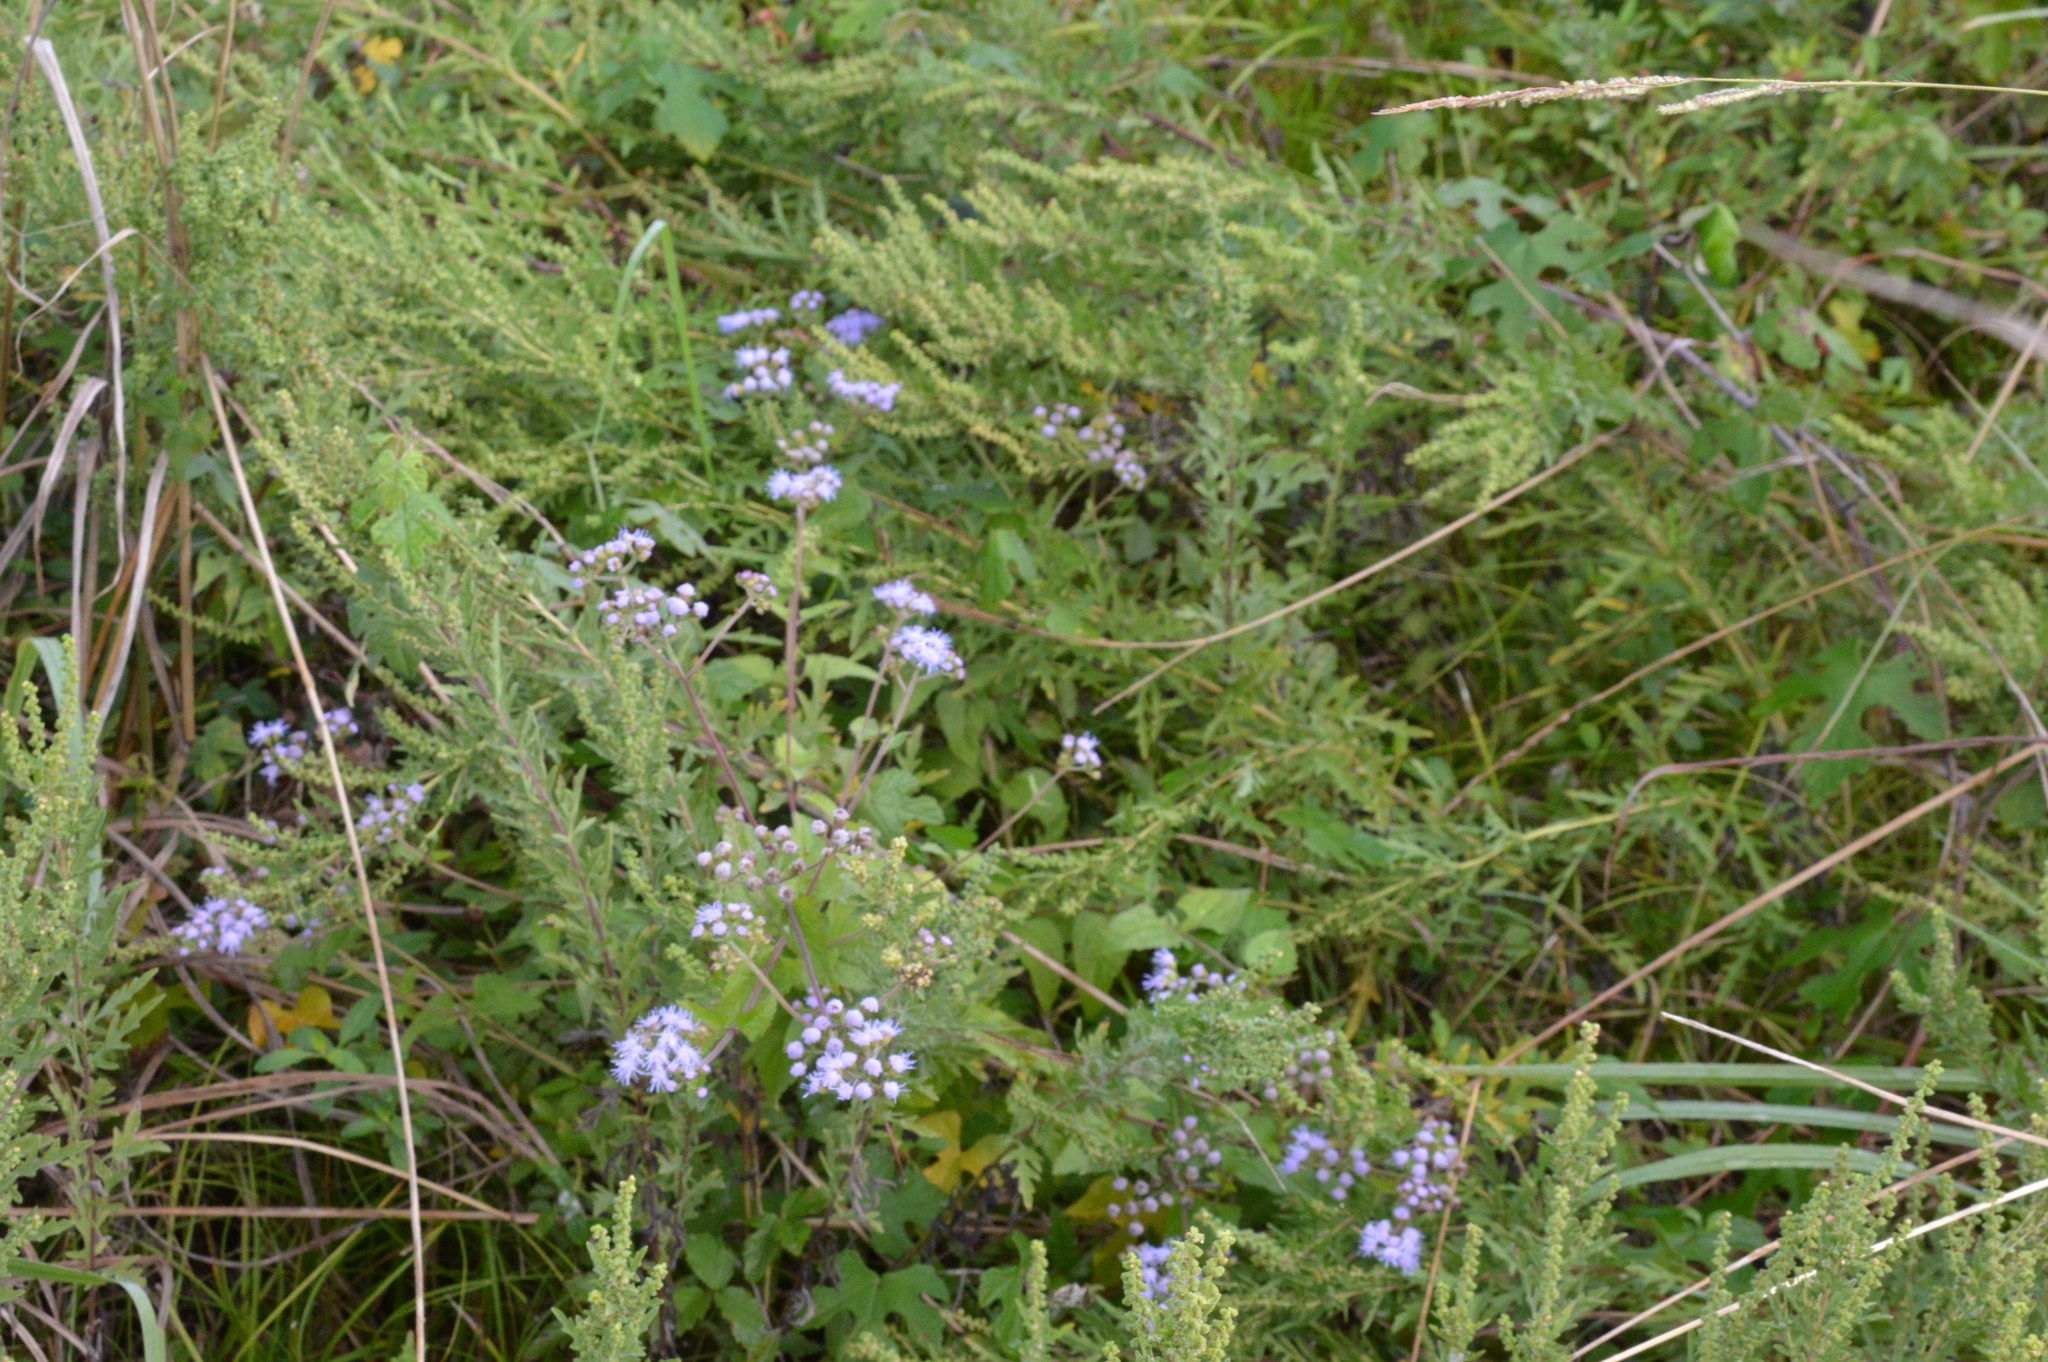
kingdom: Plantae
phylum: Tracheophyta
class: Magnoliopsida
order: Asterales
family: Asteraceae
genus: Conoclinium
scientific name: Conoclinium coelestinum
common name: Blue mistflower
